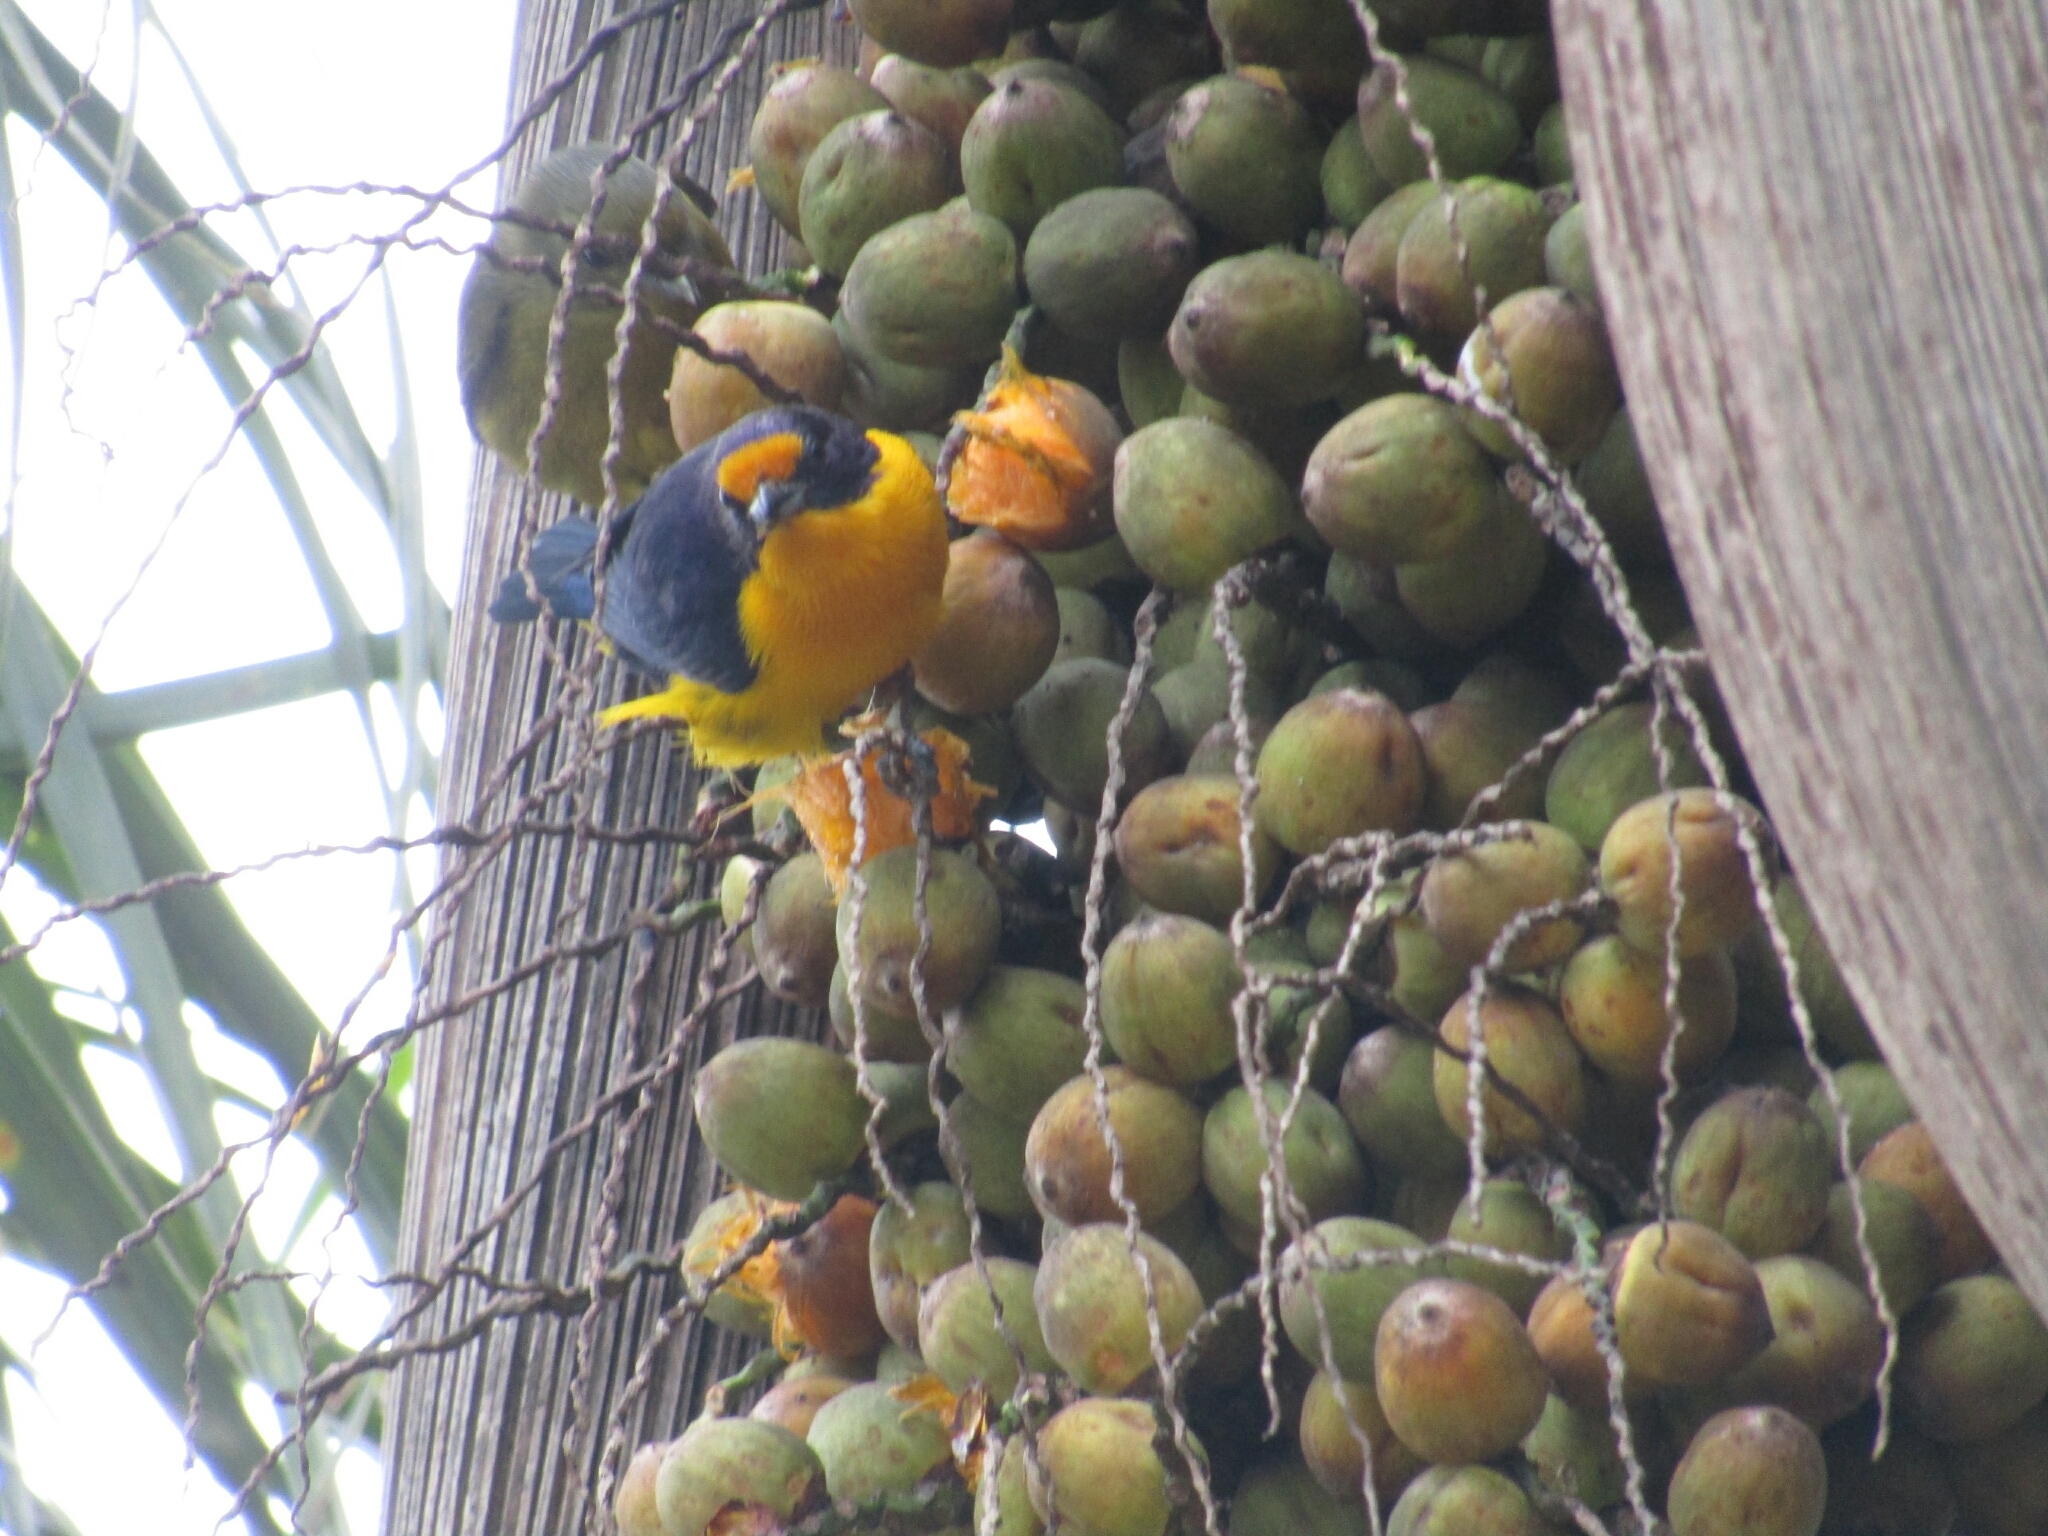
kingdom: Animalia
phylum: Chordata
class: Aves
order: Passeriformes
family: Fringillidae
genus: Euphonia
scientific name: Euphonia violacea
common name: Violaceous euphonia
